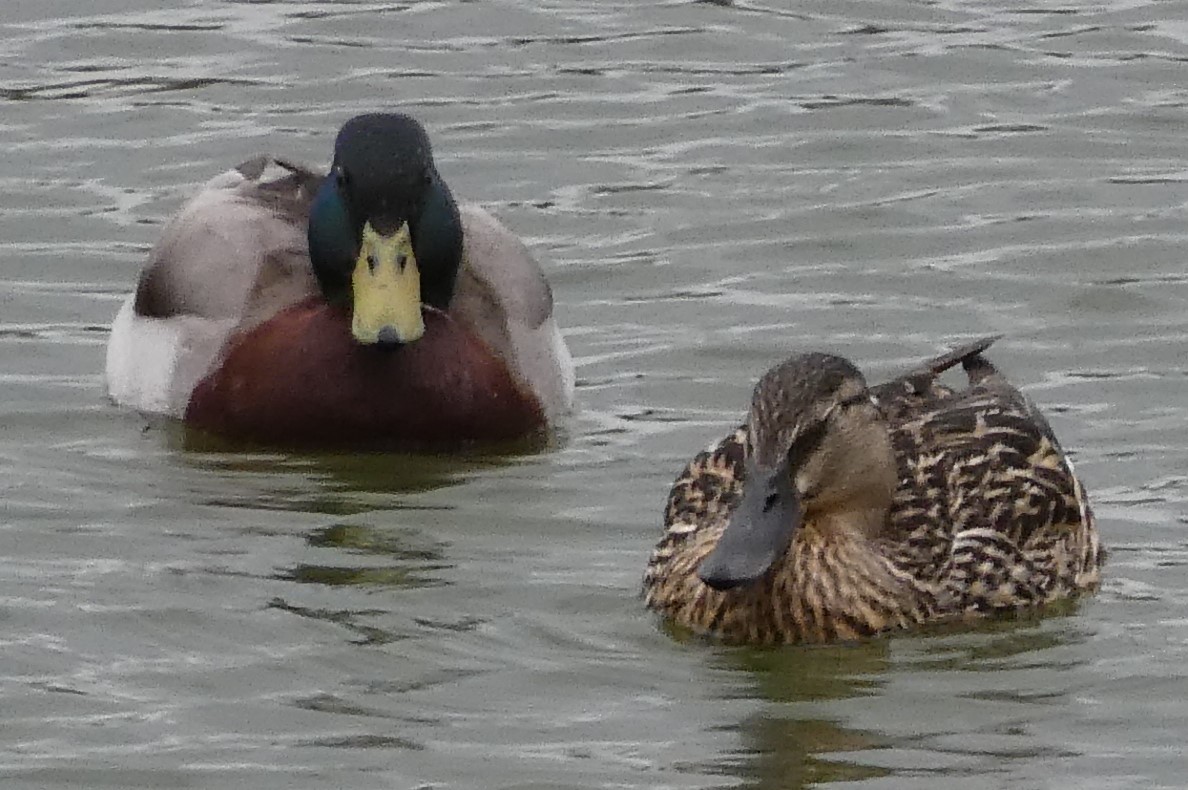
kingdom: Animalia
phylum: Chordata
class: Aves
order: Anseriformes
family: Anatidae
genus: Anas
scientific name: Anas platyrhynchos
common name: Mallard
